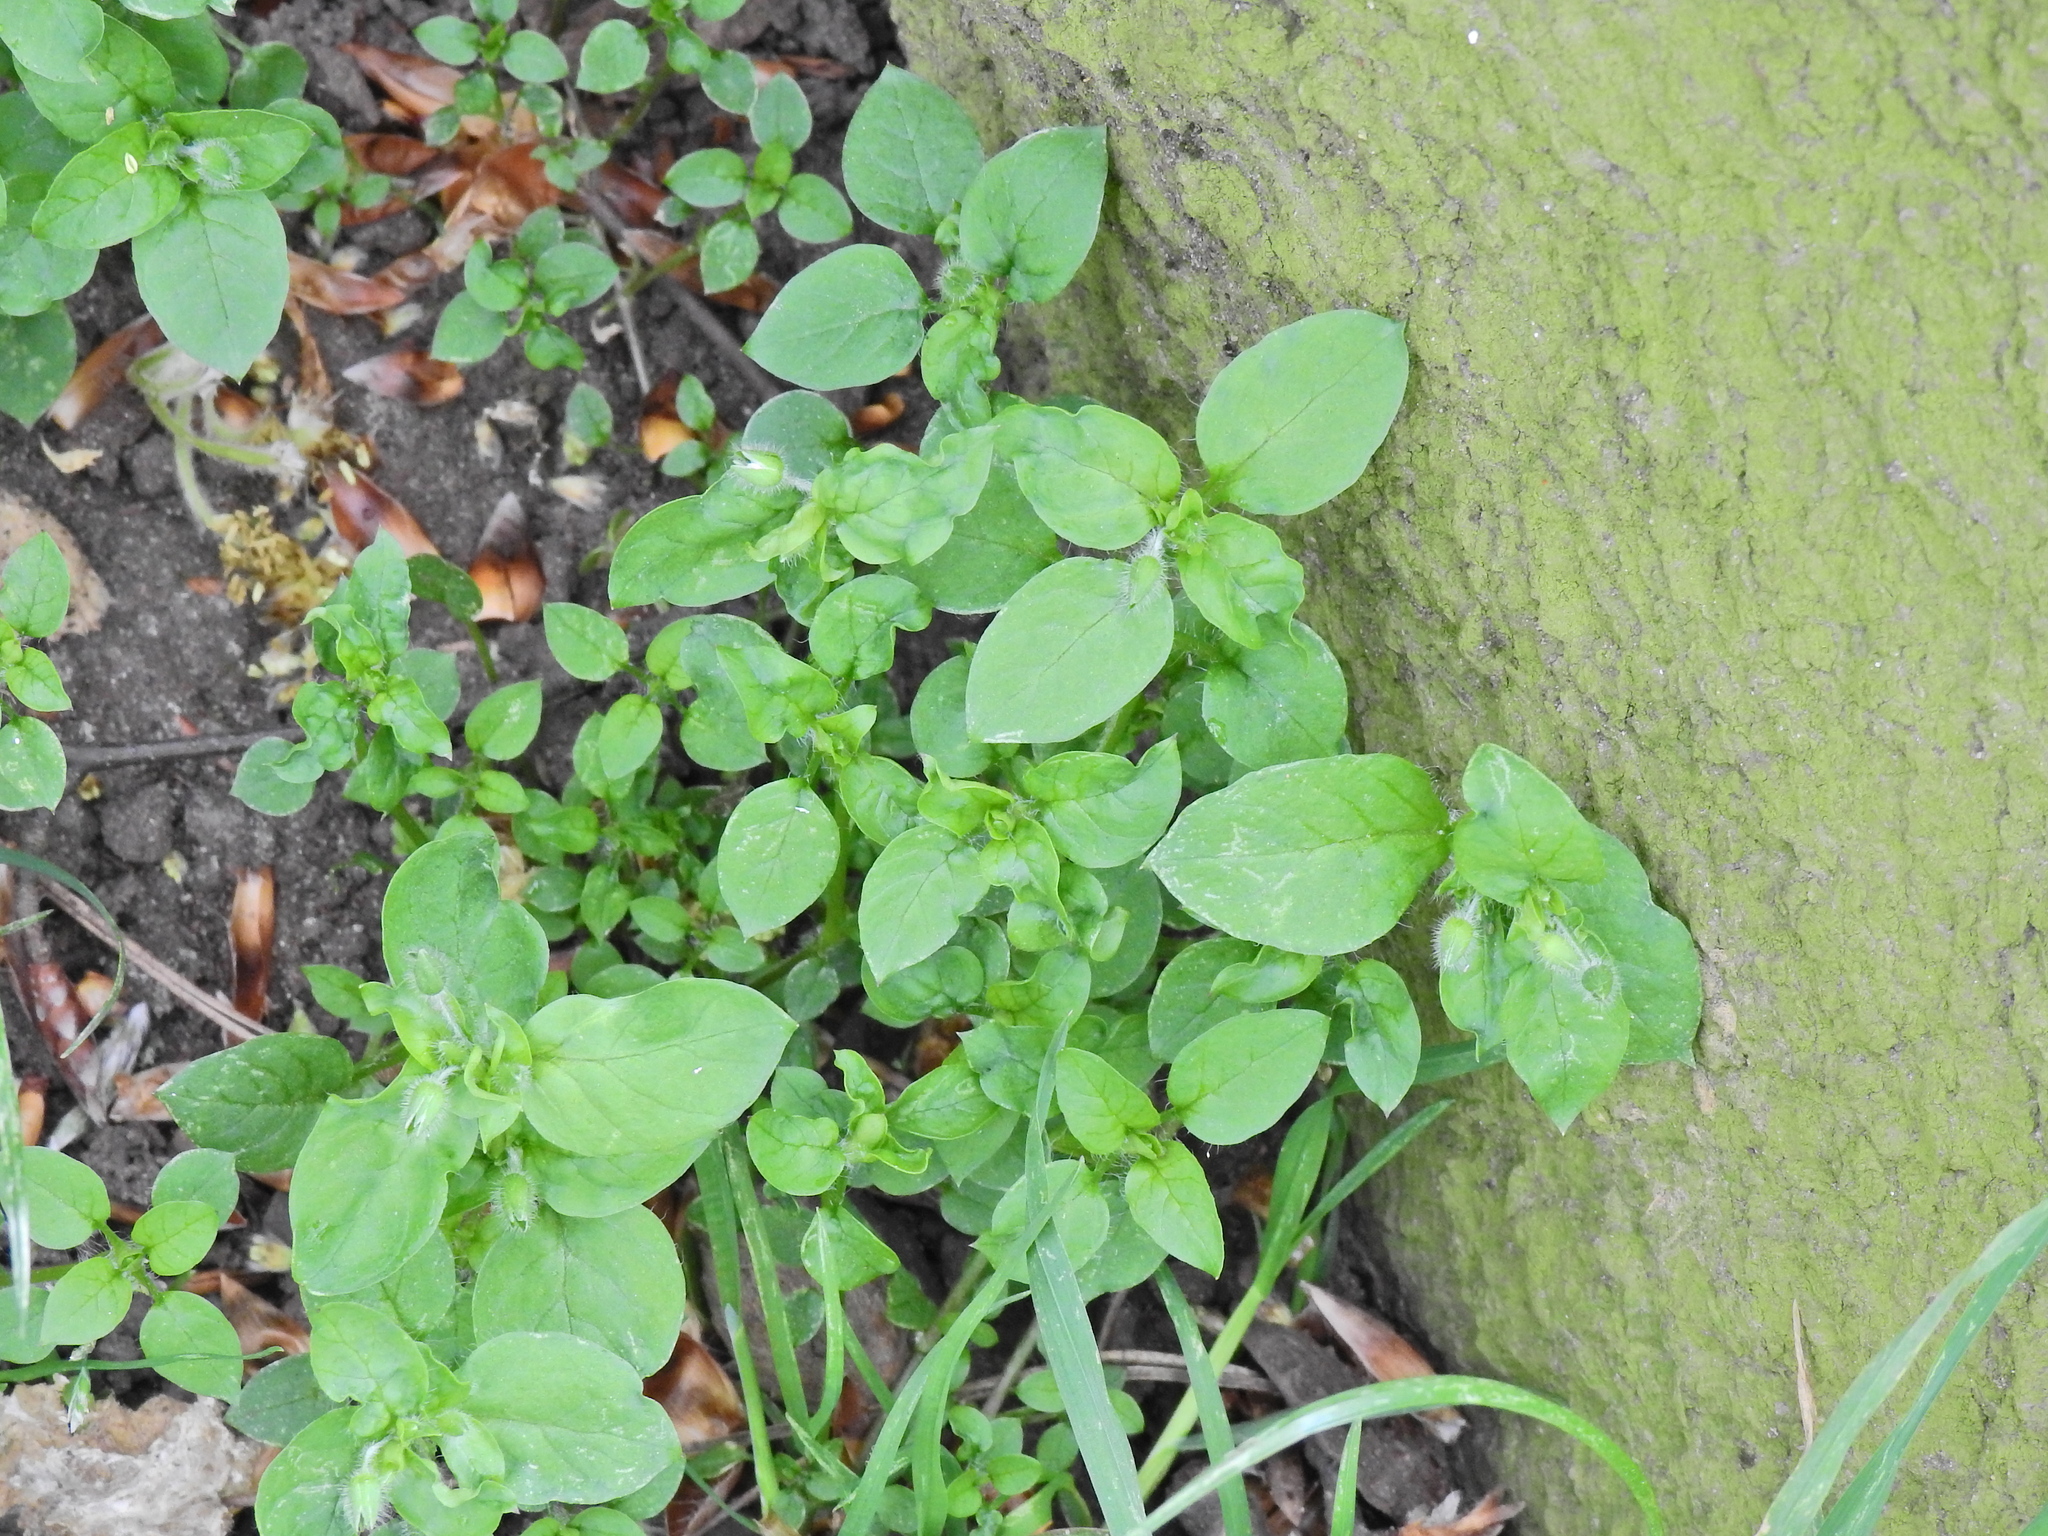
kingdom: Plantae
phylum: Tracheophyta
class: Magnoliopsida
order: Caryophyllales
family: Caryophyllaceae
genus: Stellaria
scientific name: Stellaria media
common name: Common chickweed
